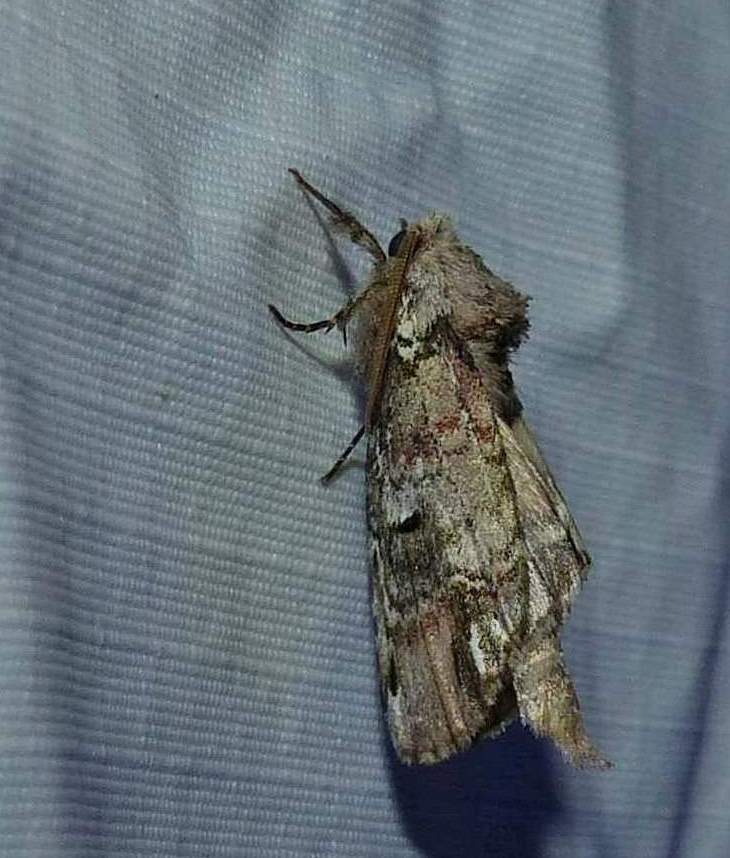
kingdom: Animalia
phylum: Arthropoda
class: Insecta
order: Lepidoptera
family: Notodontidae
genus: Schizura
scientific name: Schizura
